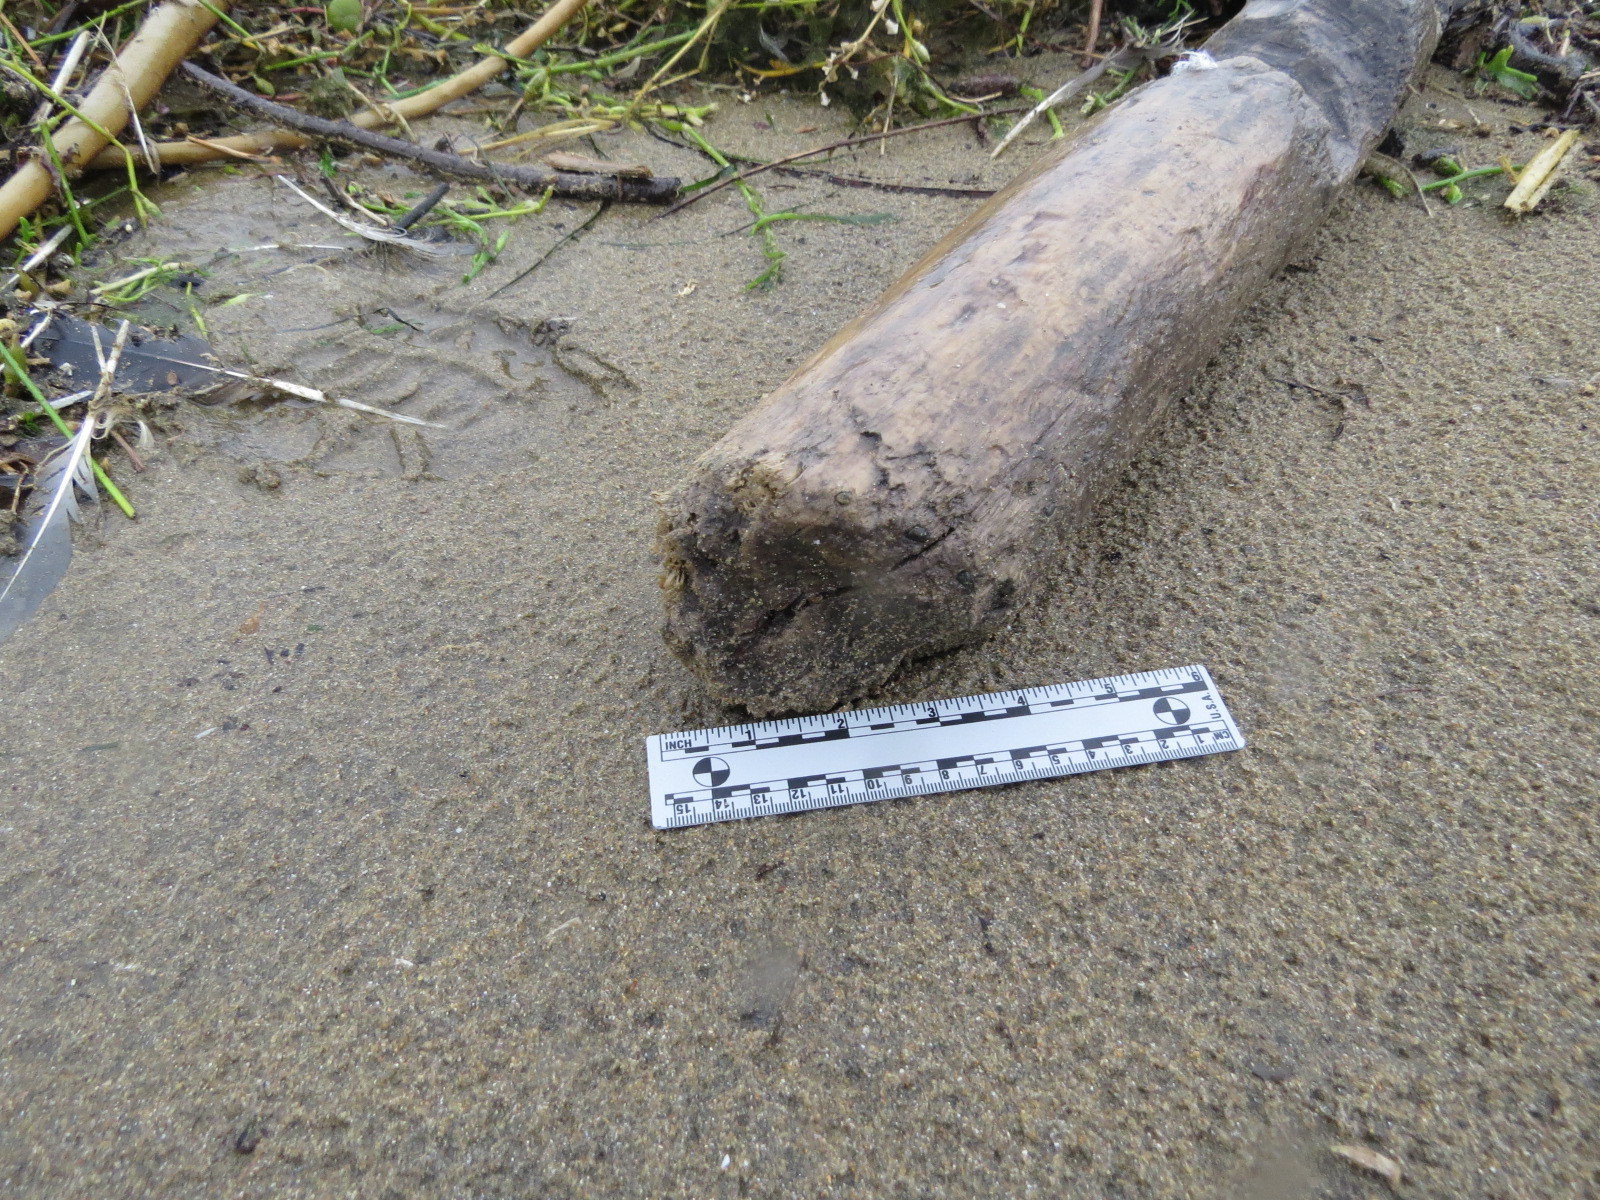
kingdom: Animalia
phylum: Chordata
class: Mammalia
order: Rodentia
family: Castoridae
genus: Castor
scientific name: Castor canadensis
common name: American beaver
